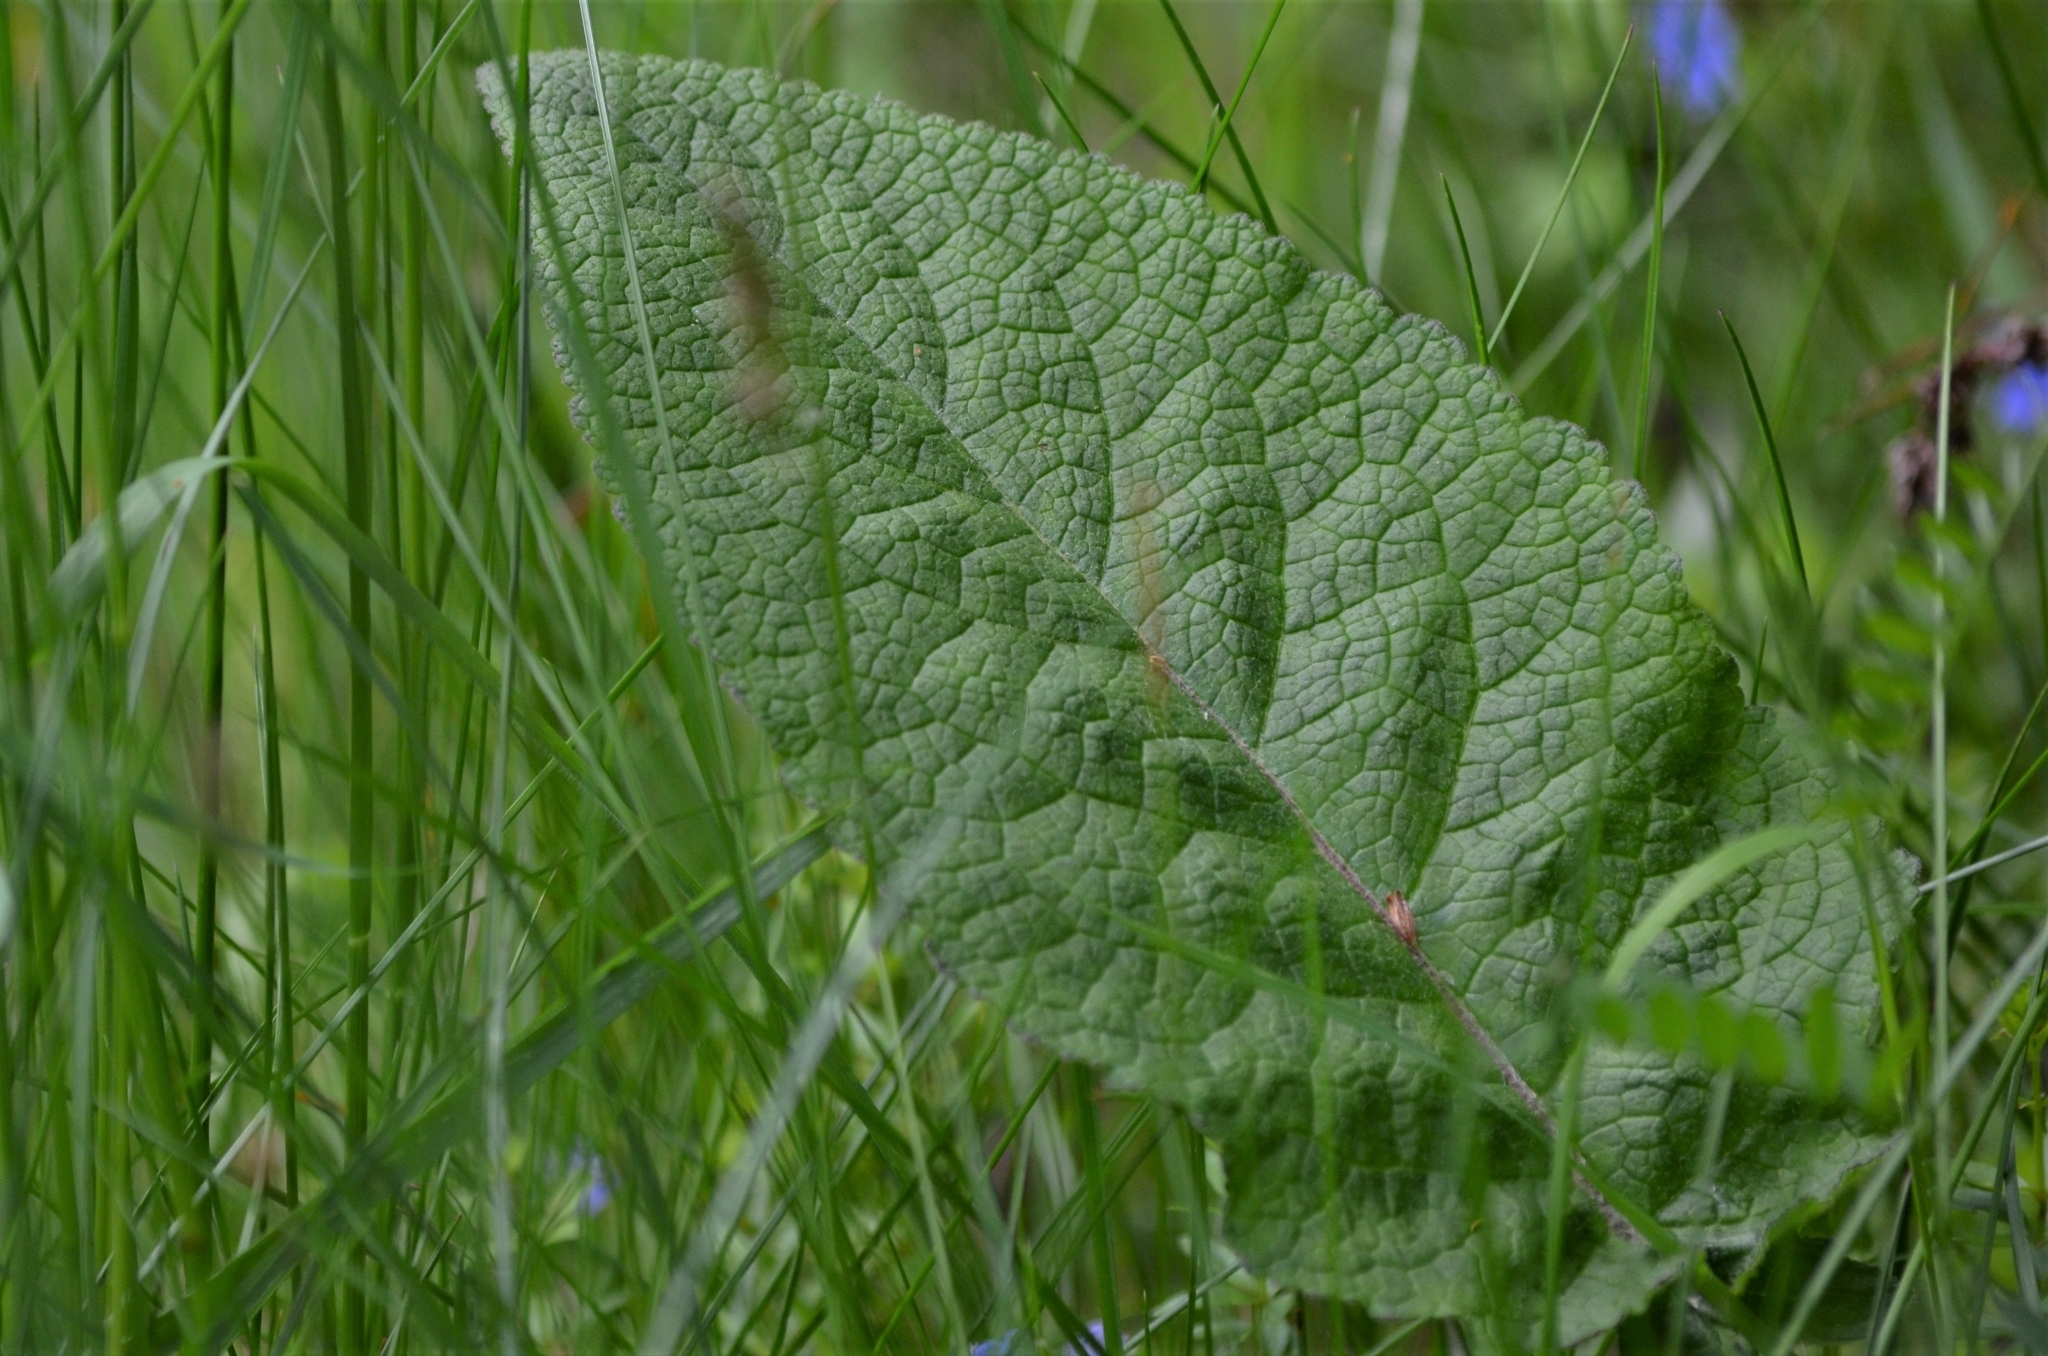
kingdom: Plantae
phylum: Tracheophyta
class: Magnoliopsida
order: Lamiales
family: Scrophulariaceae
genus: Verbascum
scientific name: Verbascum alpinum
